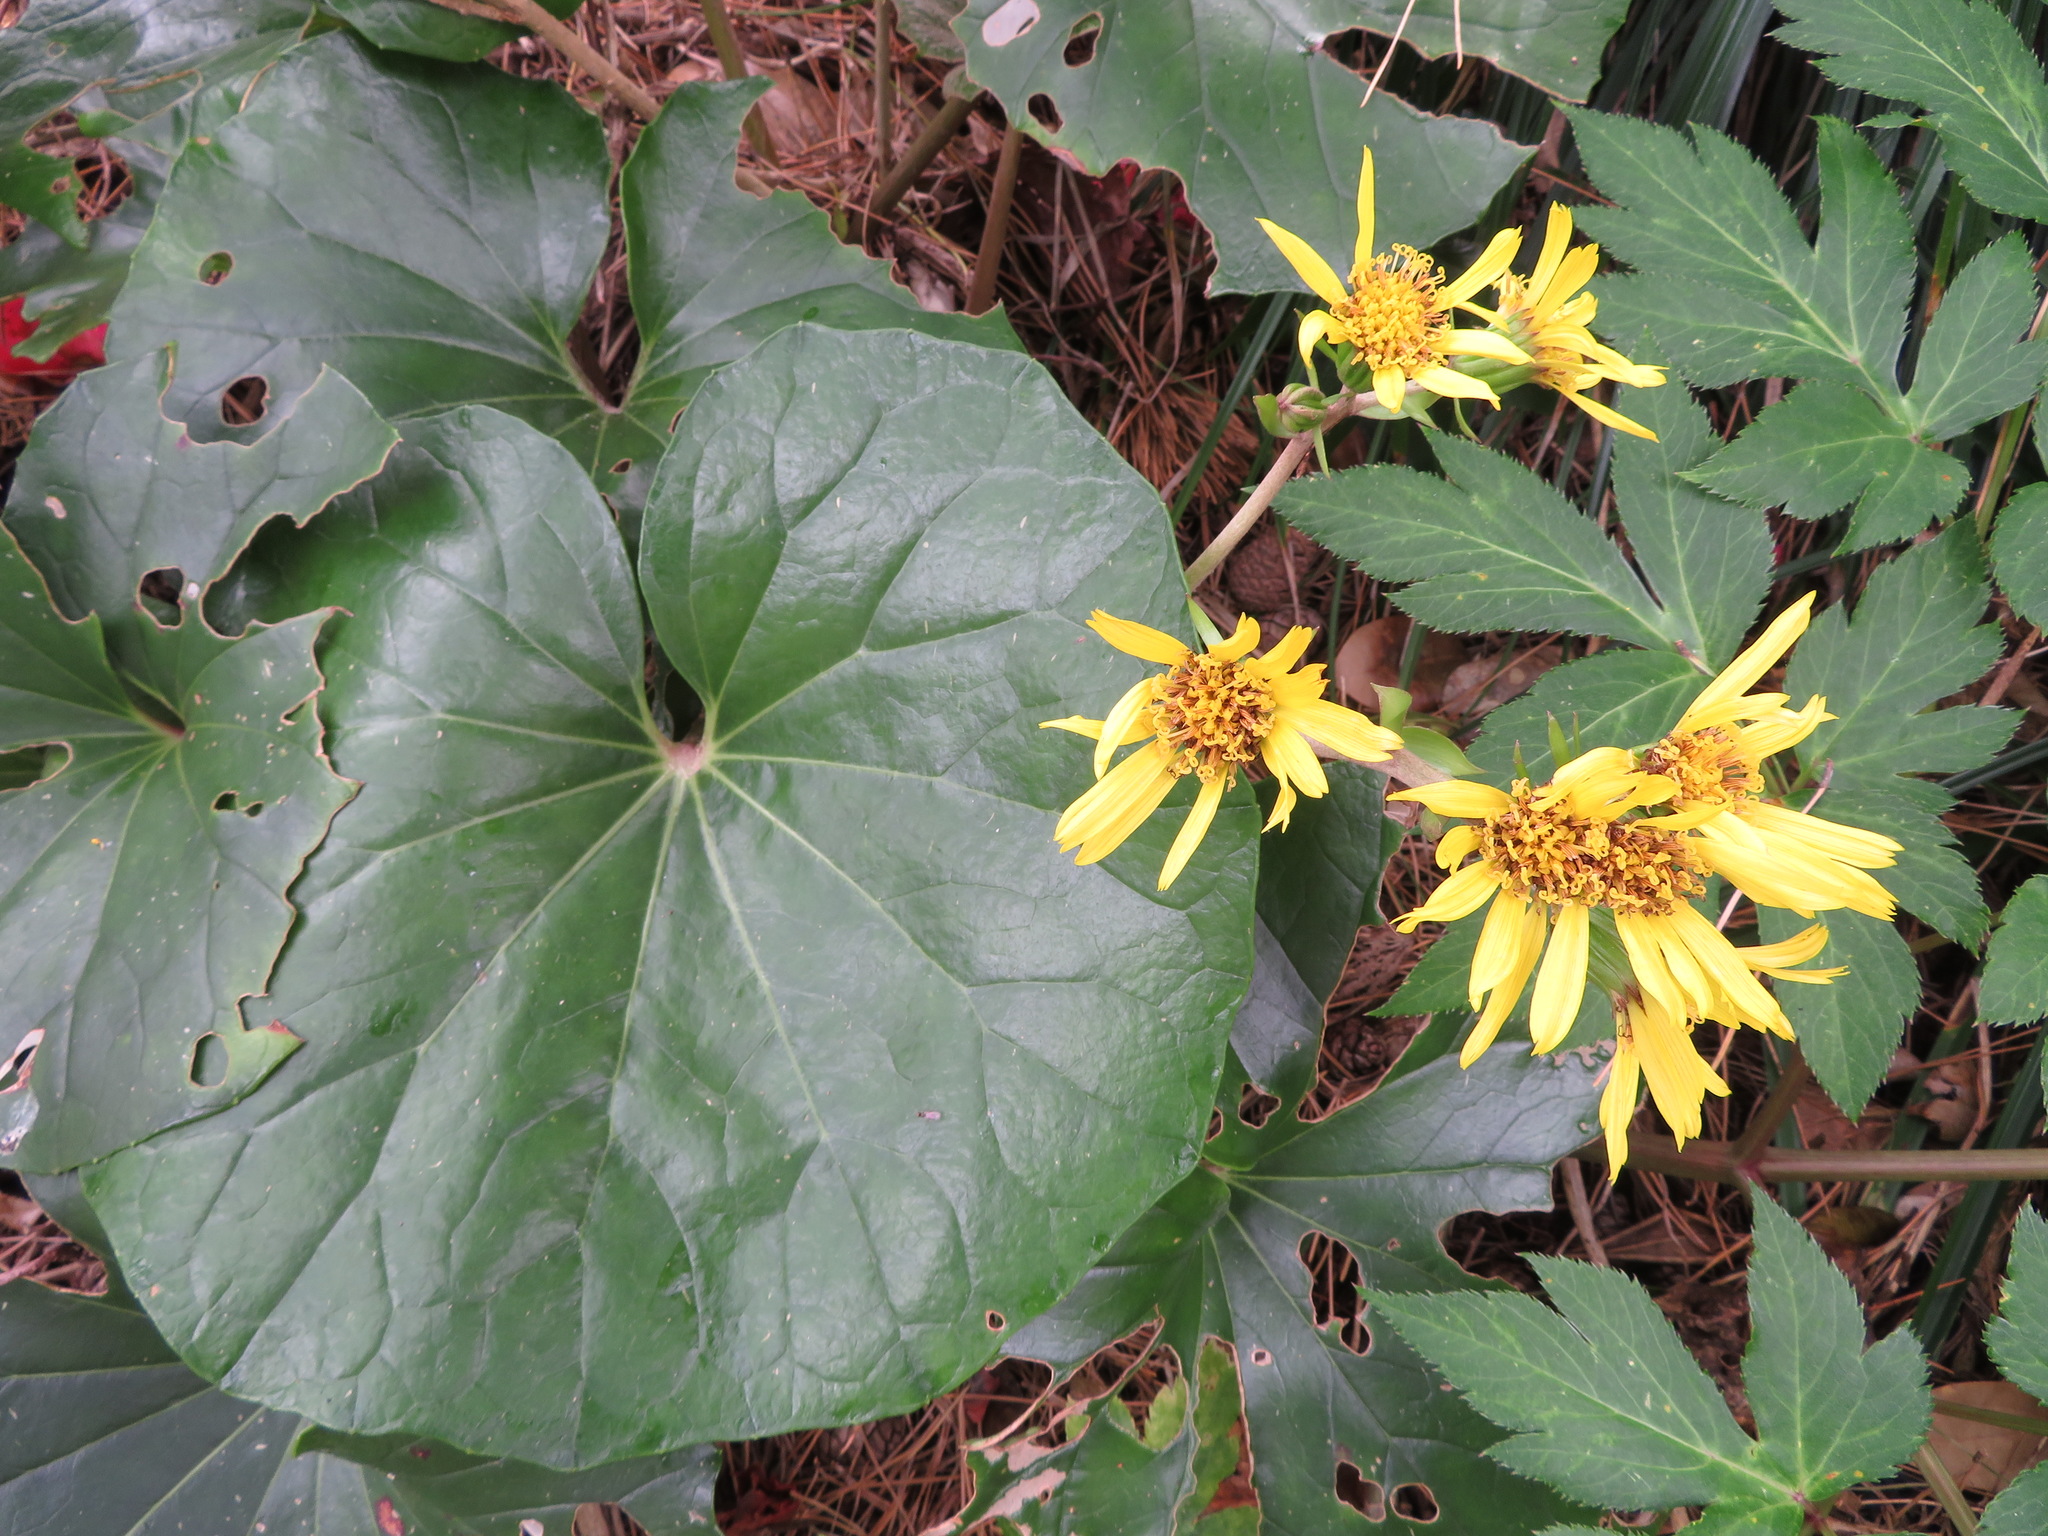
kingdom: Plantae
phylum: Tracheophyta
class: Magnoliopsida
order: Asterales
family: Asteraceae
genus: Farfugium
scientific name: Farfugium japonicum
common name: Leopardplant
